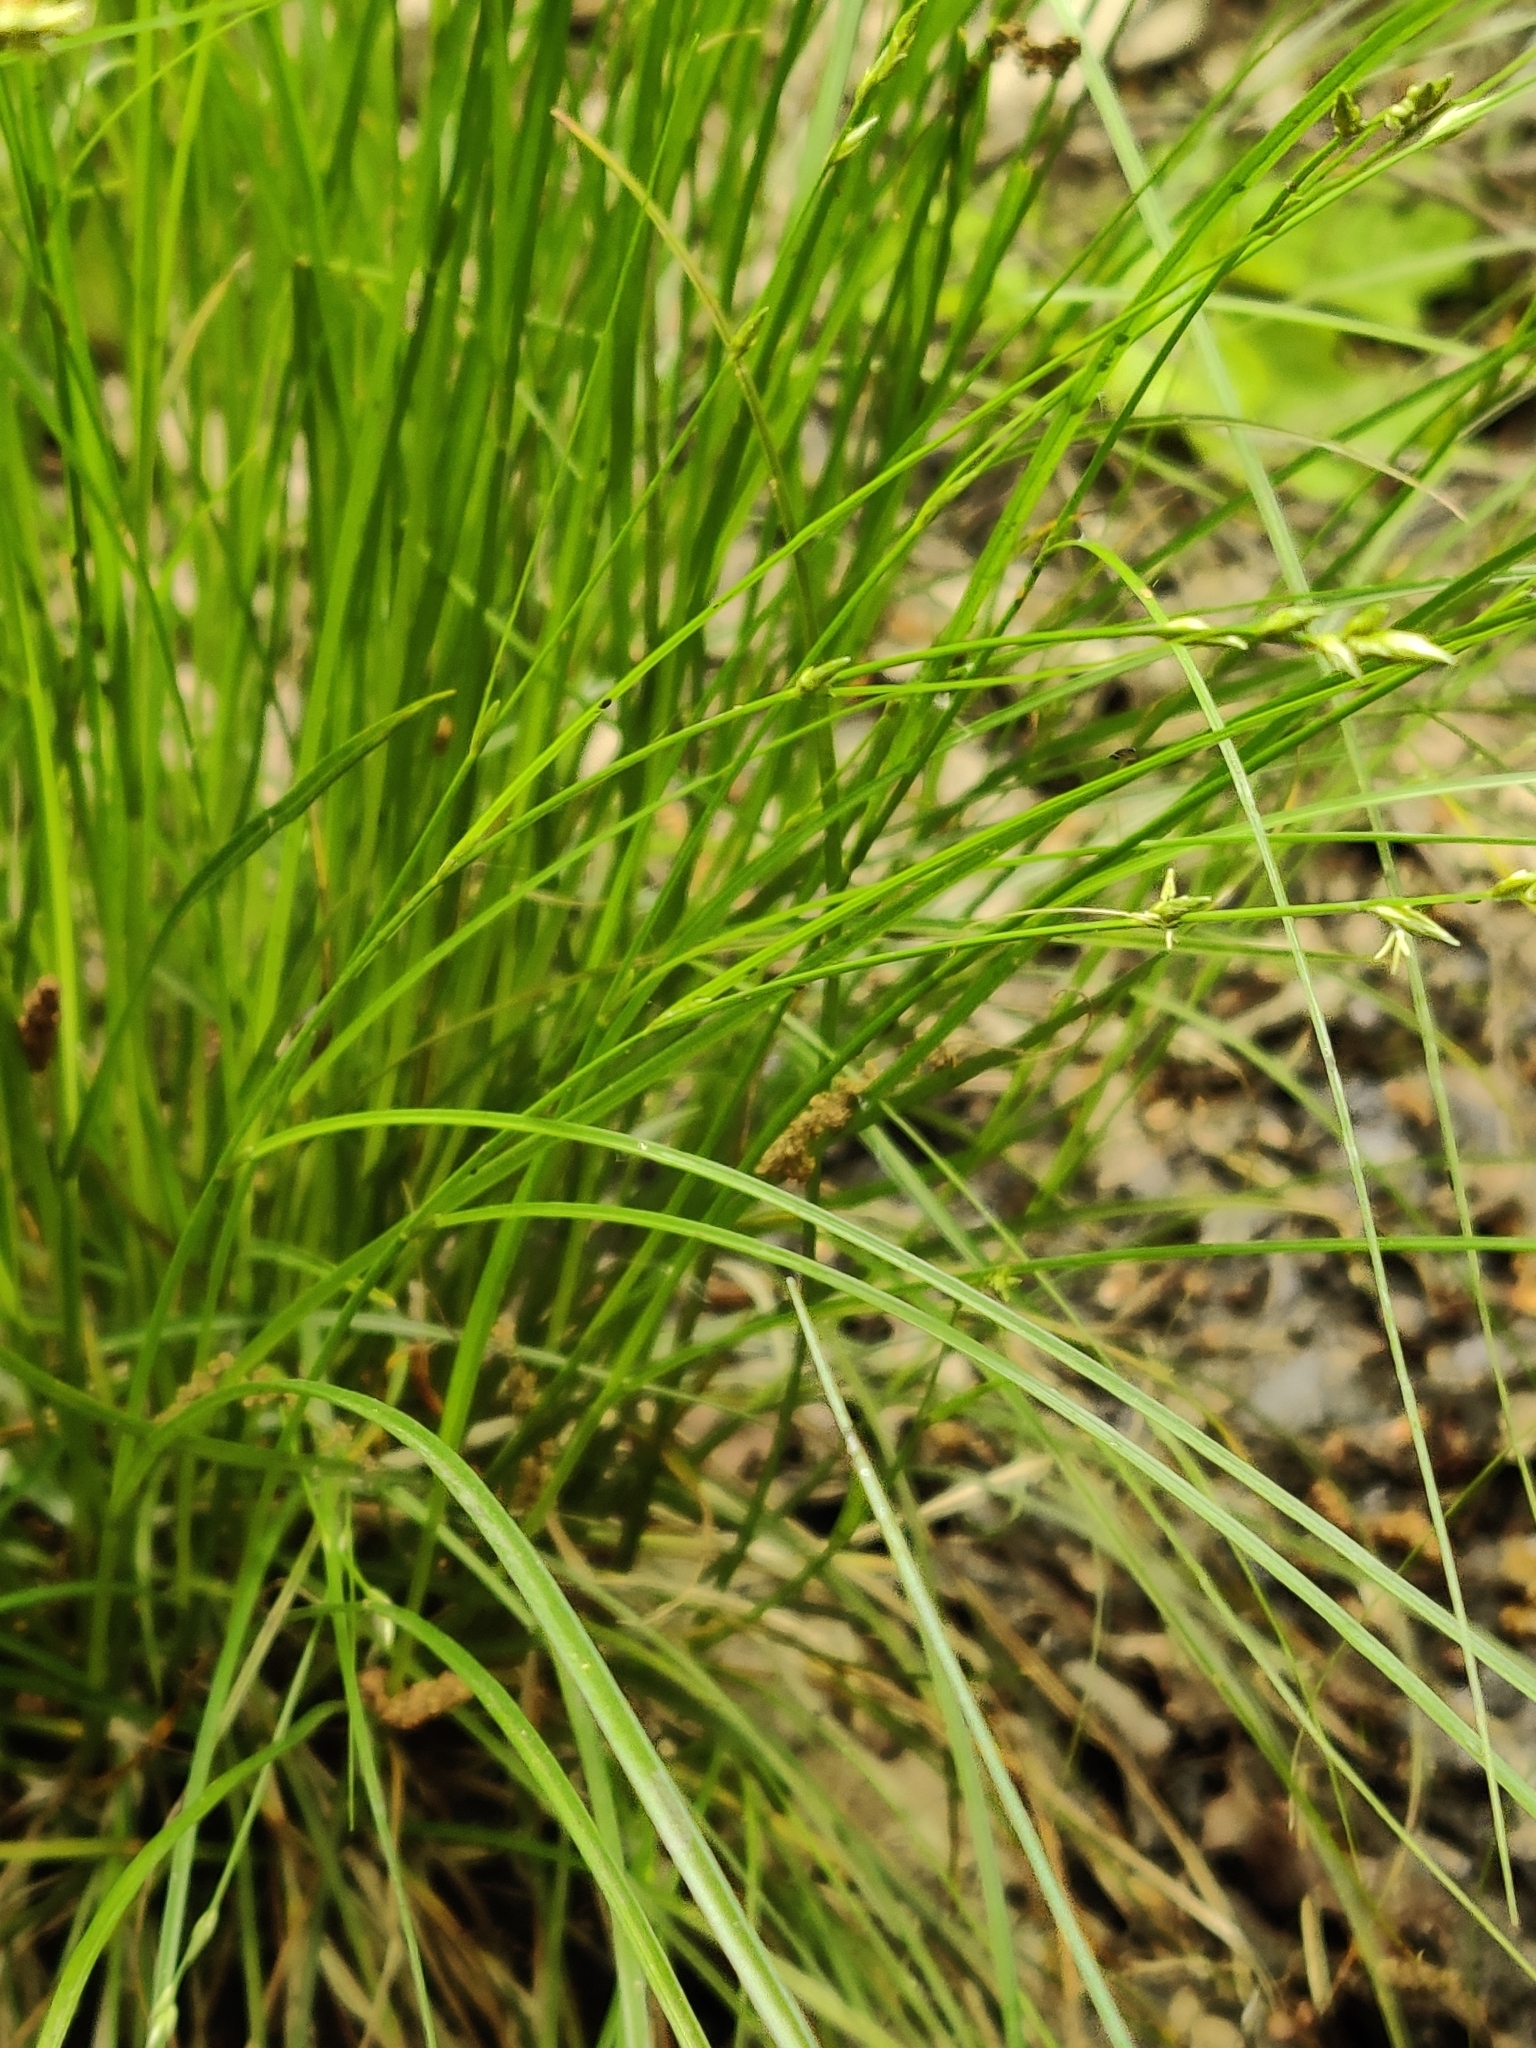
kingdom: Plantae
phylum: Tracheophyta
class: Liliopsida
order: Poales
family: Cyperaceae
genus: Carex
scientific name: Carex remota
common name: Remote sedge
